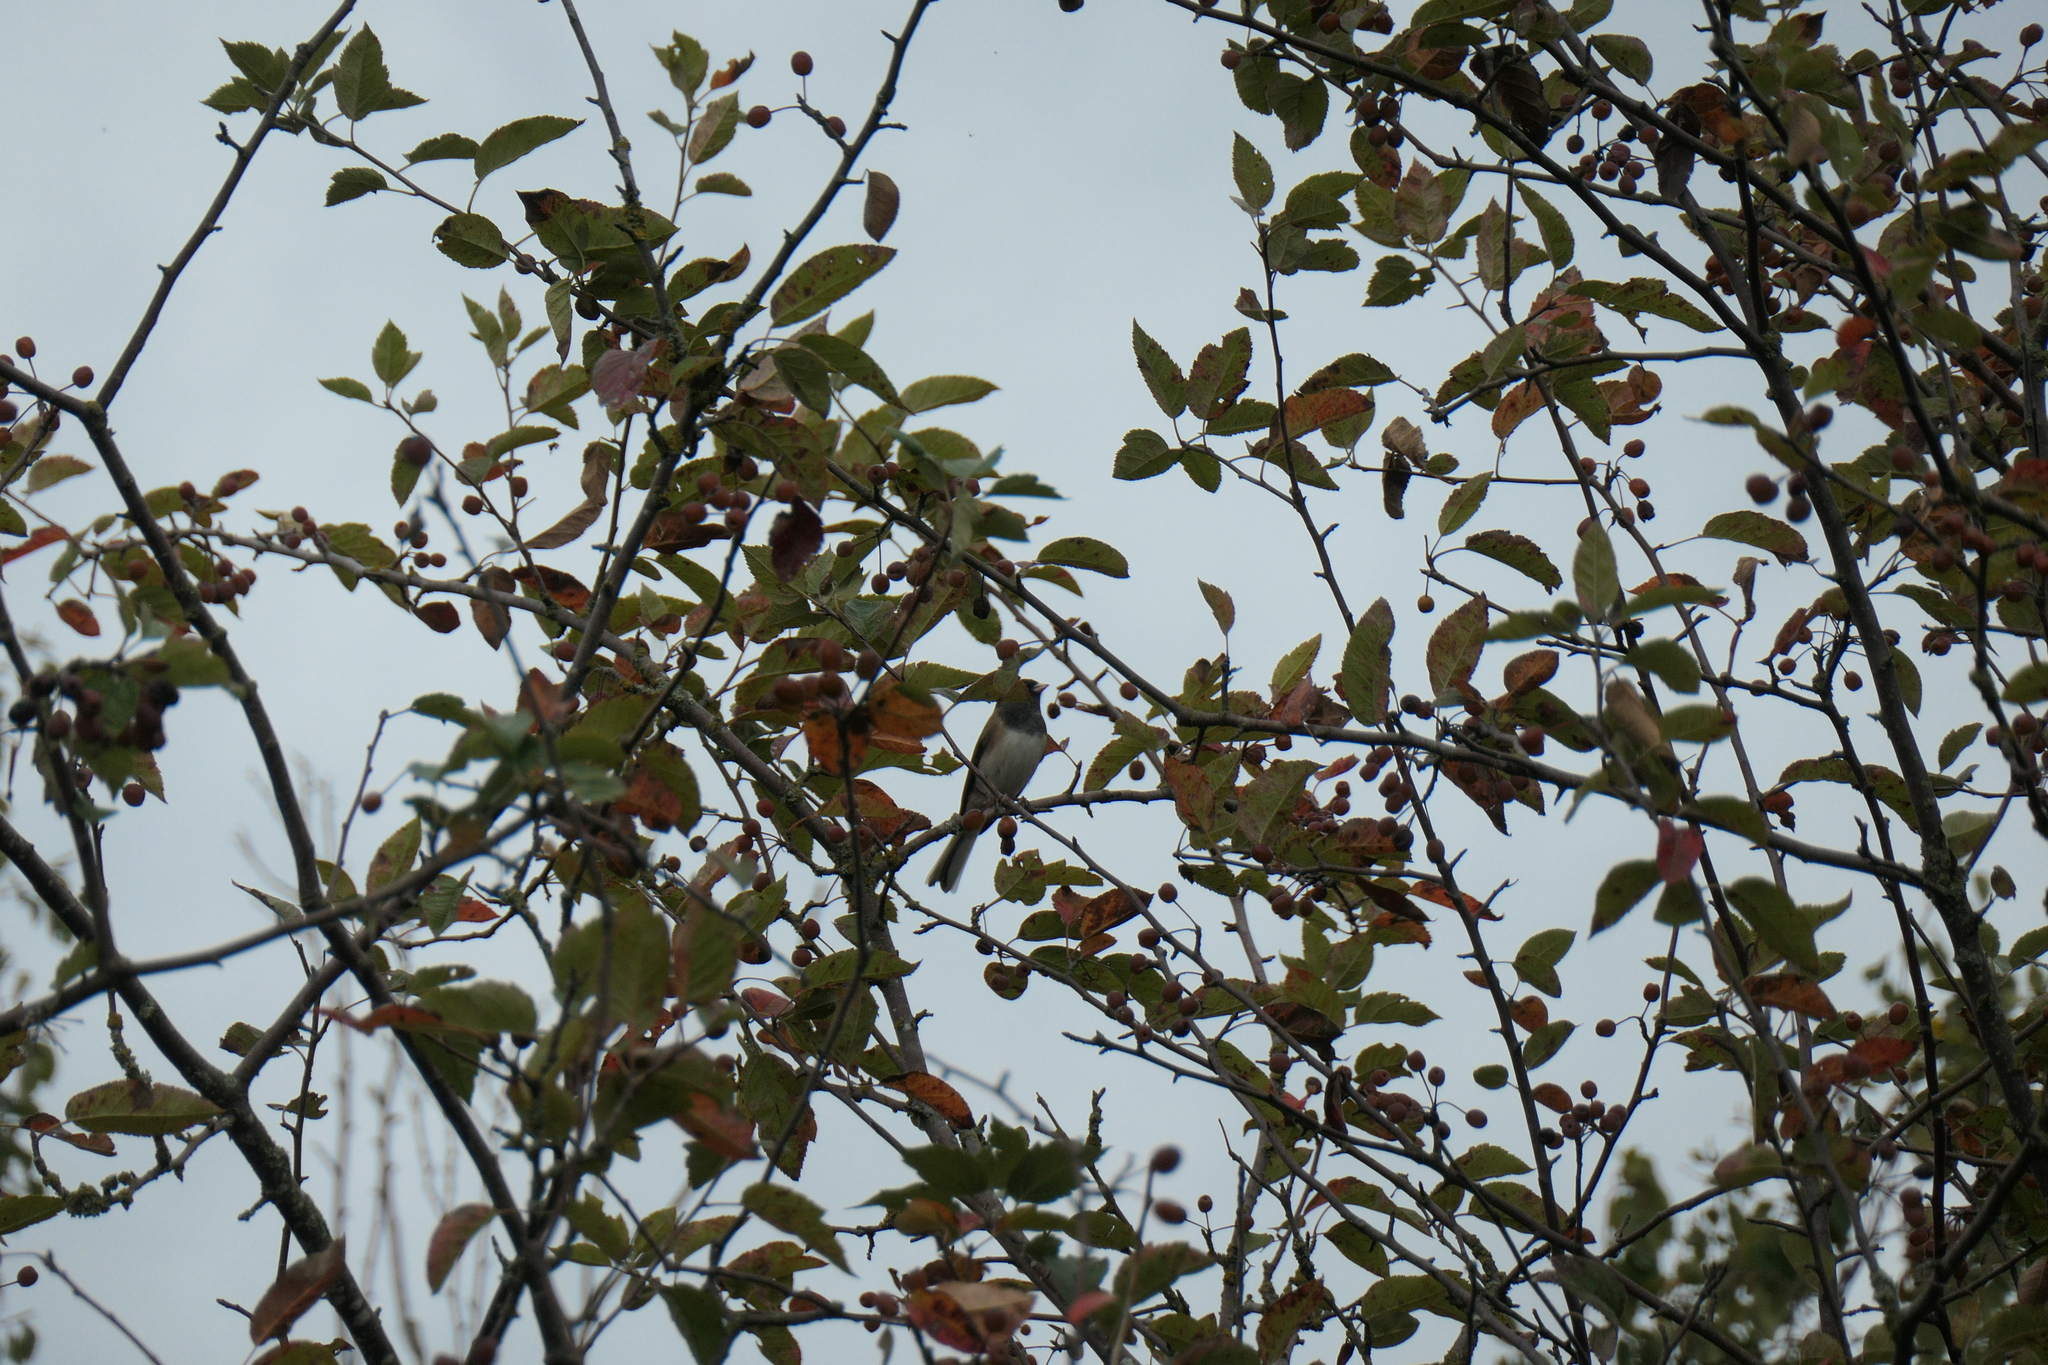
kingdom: Animalia
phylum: Chordata
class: Aves
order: Passeriformes
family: Passerellidae
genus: Junco
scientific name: Junco hyemalis
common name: Dark-eyed junco
